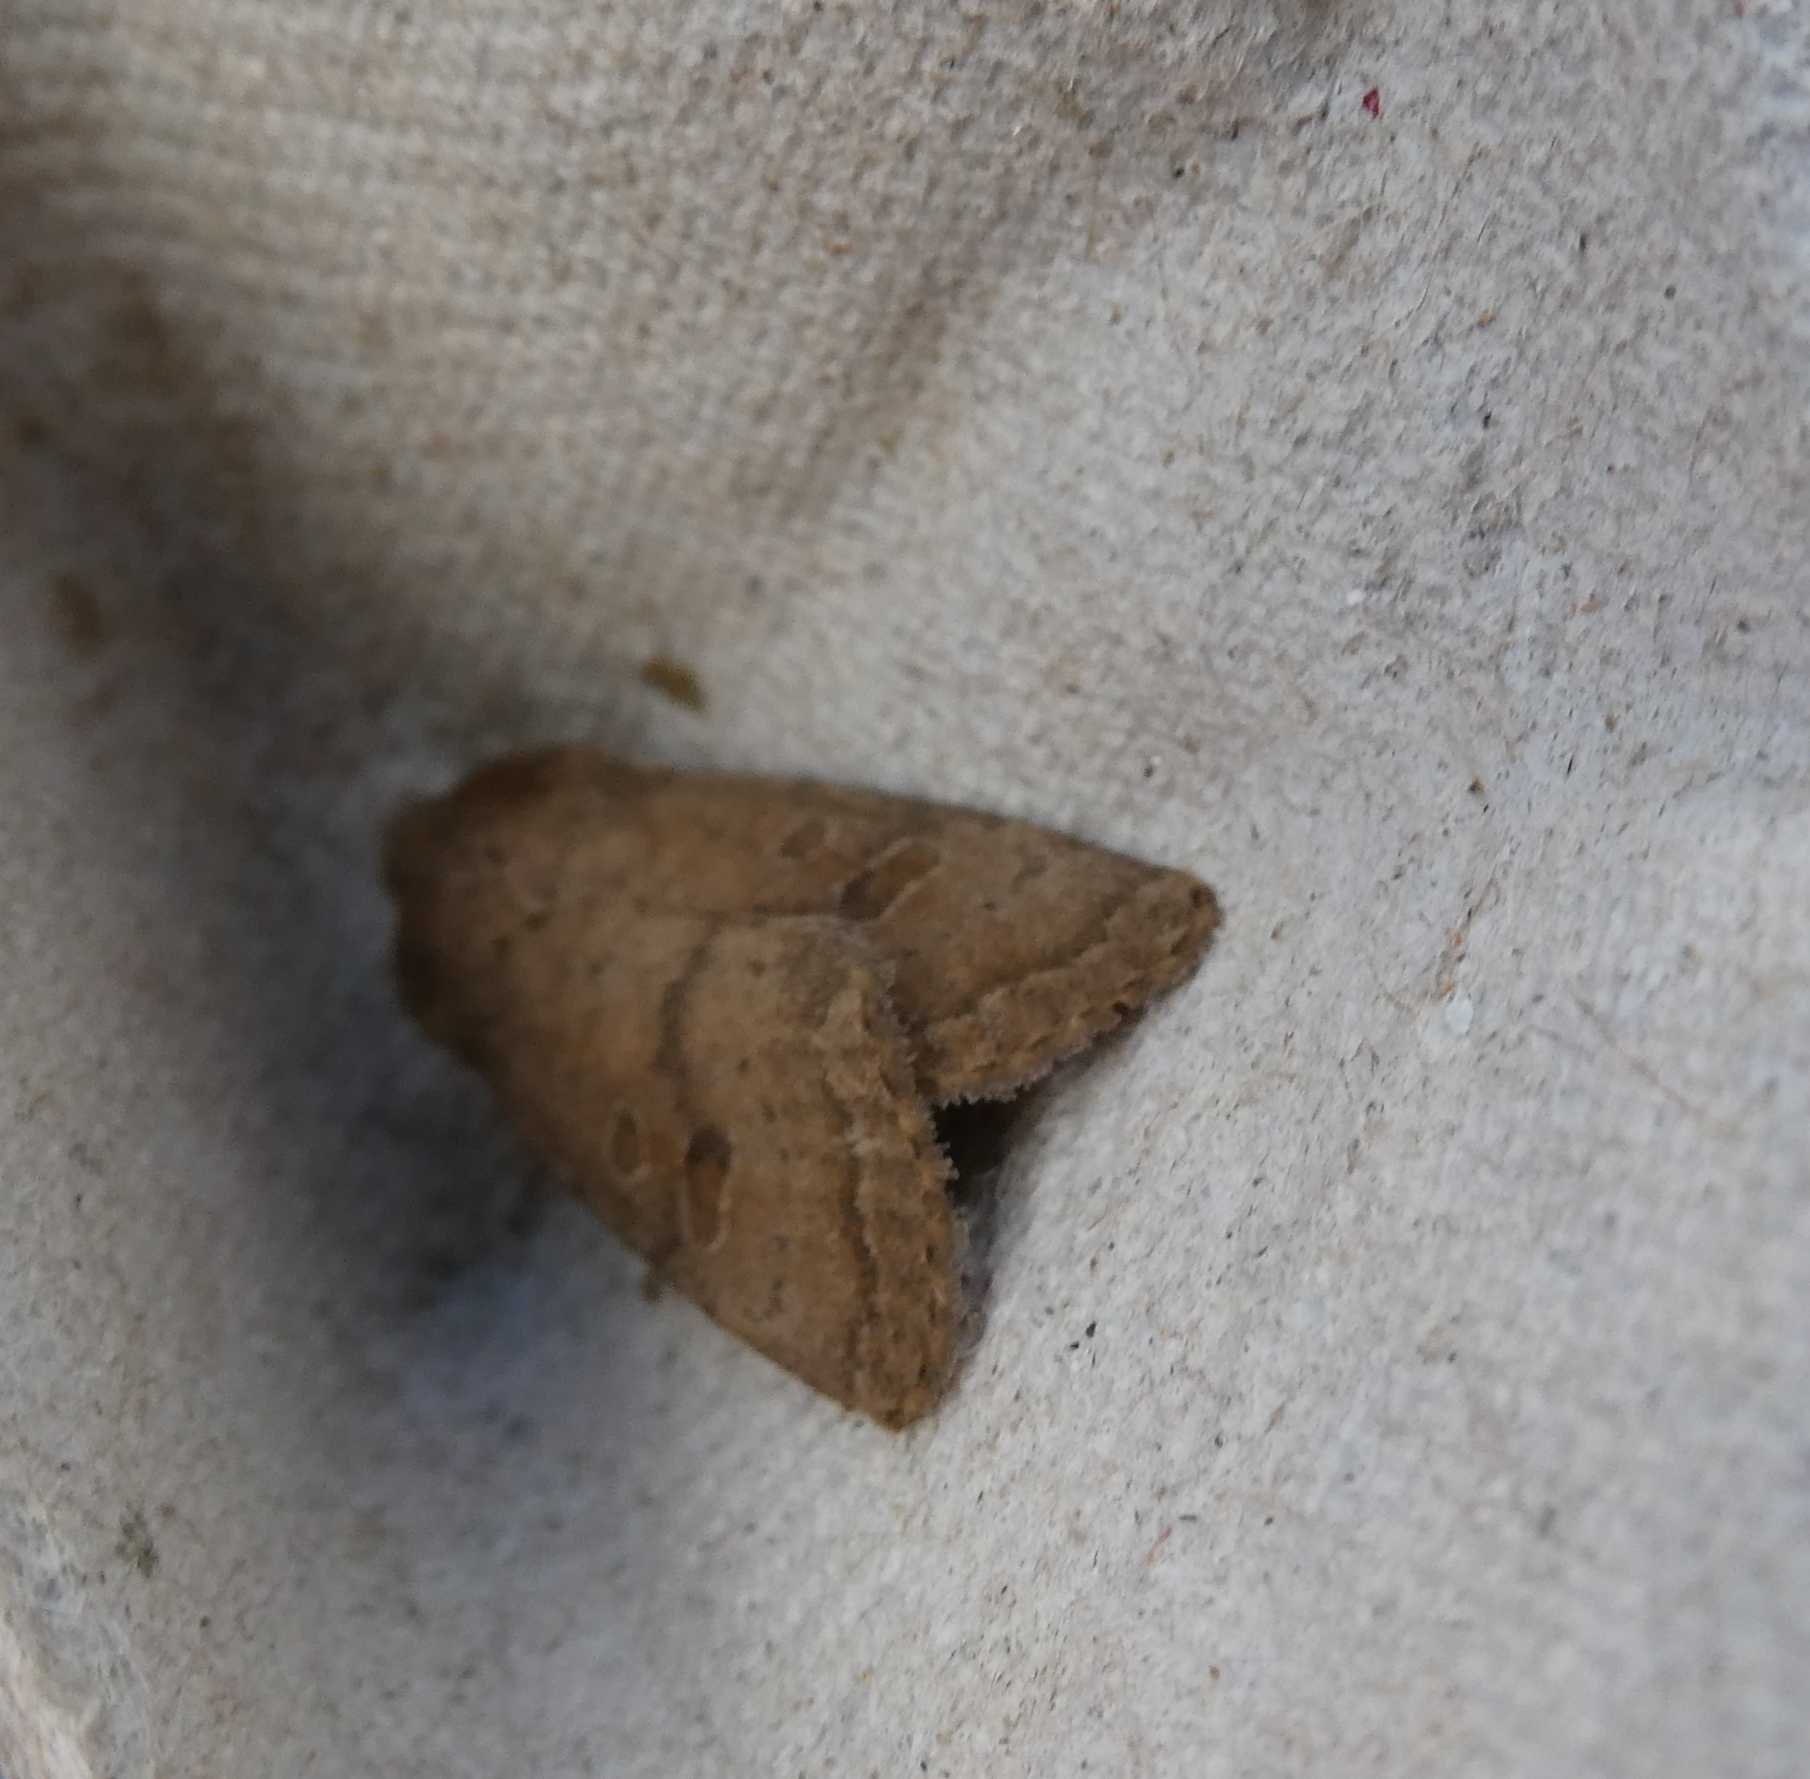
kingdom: Animalia
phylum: Arthropoda
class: Insecta
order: Lepidoptera
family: Noctuidae
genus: Hoplodrina
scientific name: Hoplodrina octogenaria
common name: Uncertain
